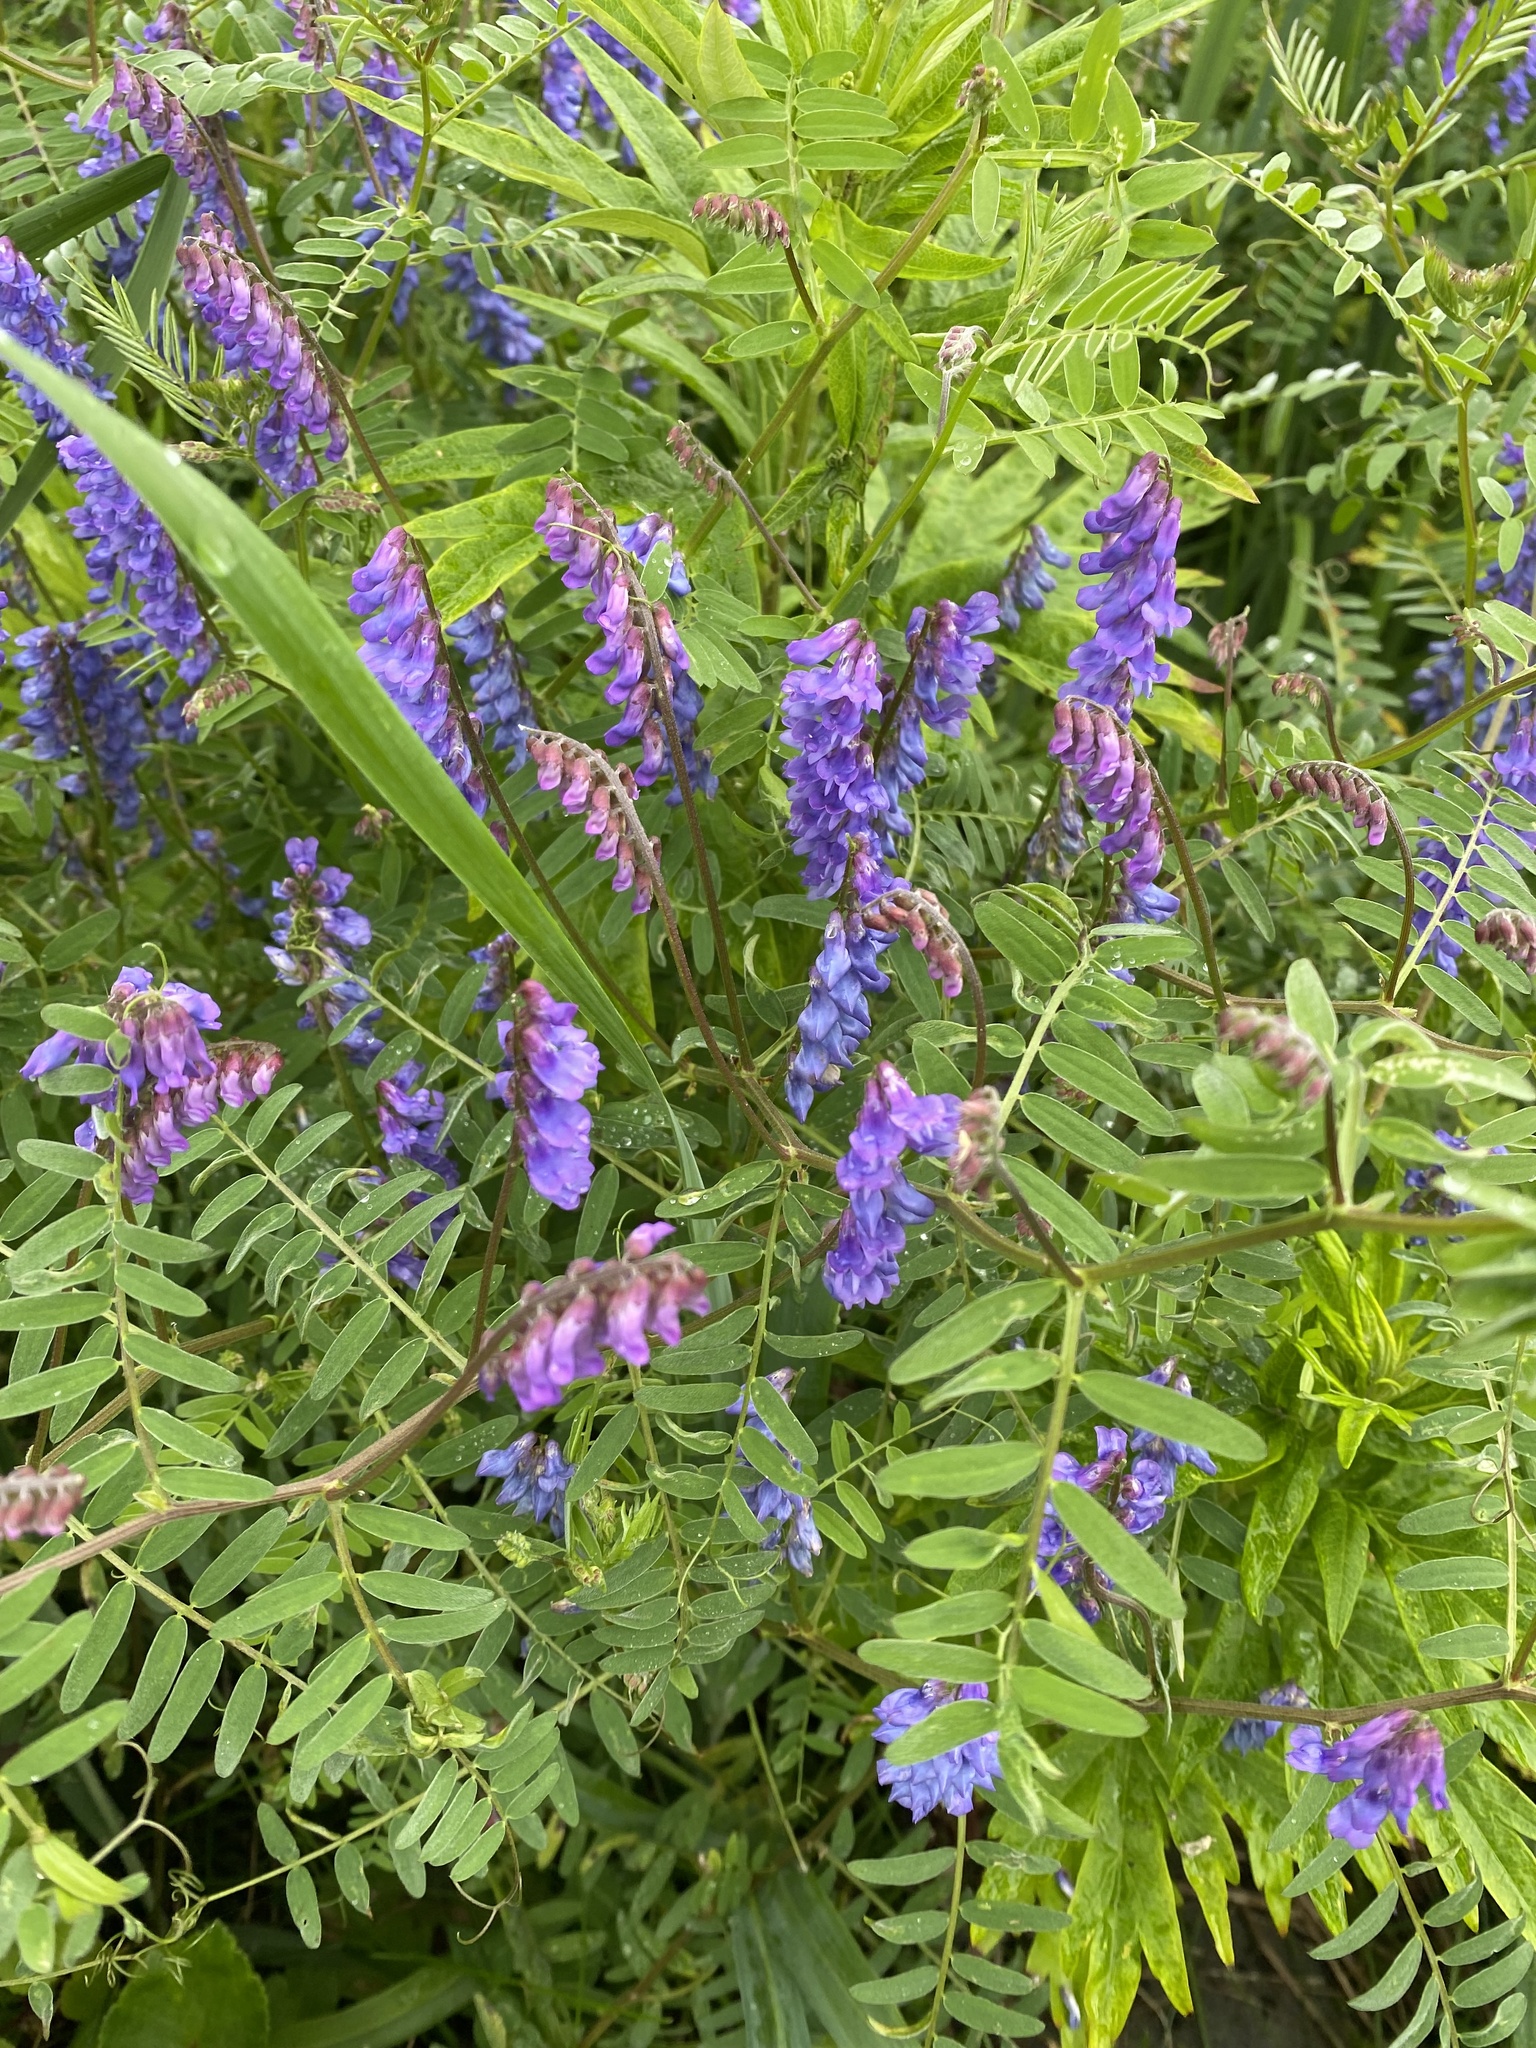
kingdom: Plantae
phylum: Tracheophyta
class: Magnoliopsida
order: Fabales
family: Fabaceae
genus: Vicia
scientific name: Vicia cracca
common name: Bird vetch
